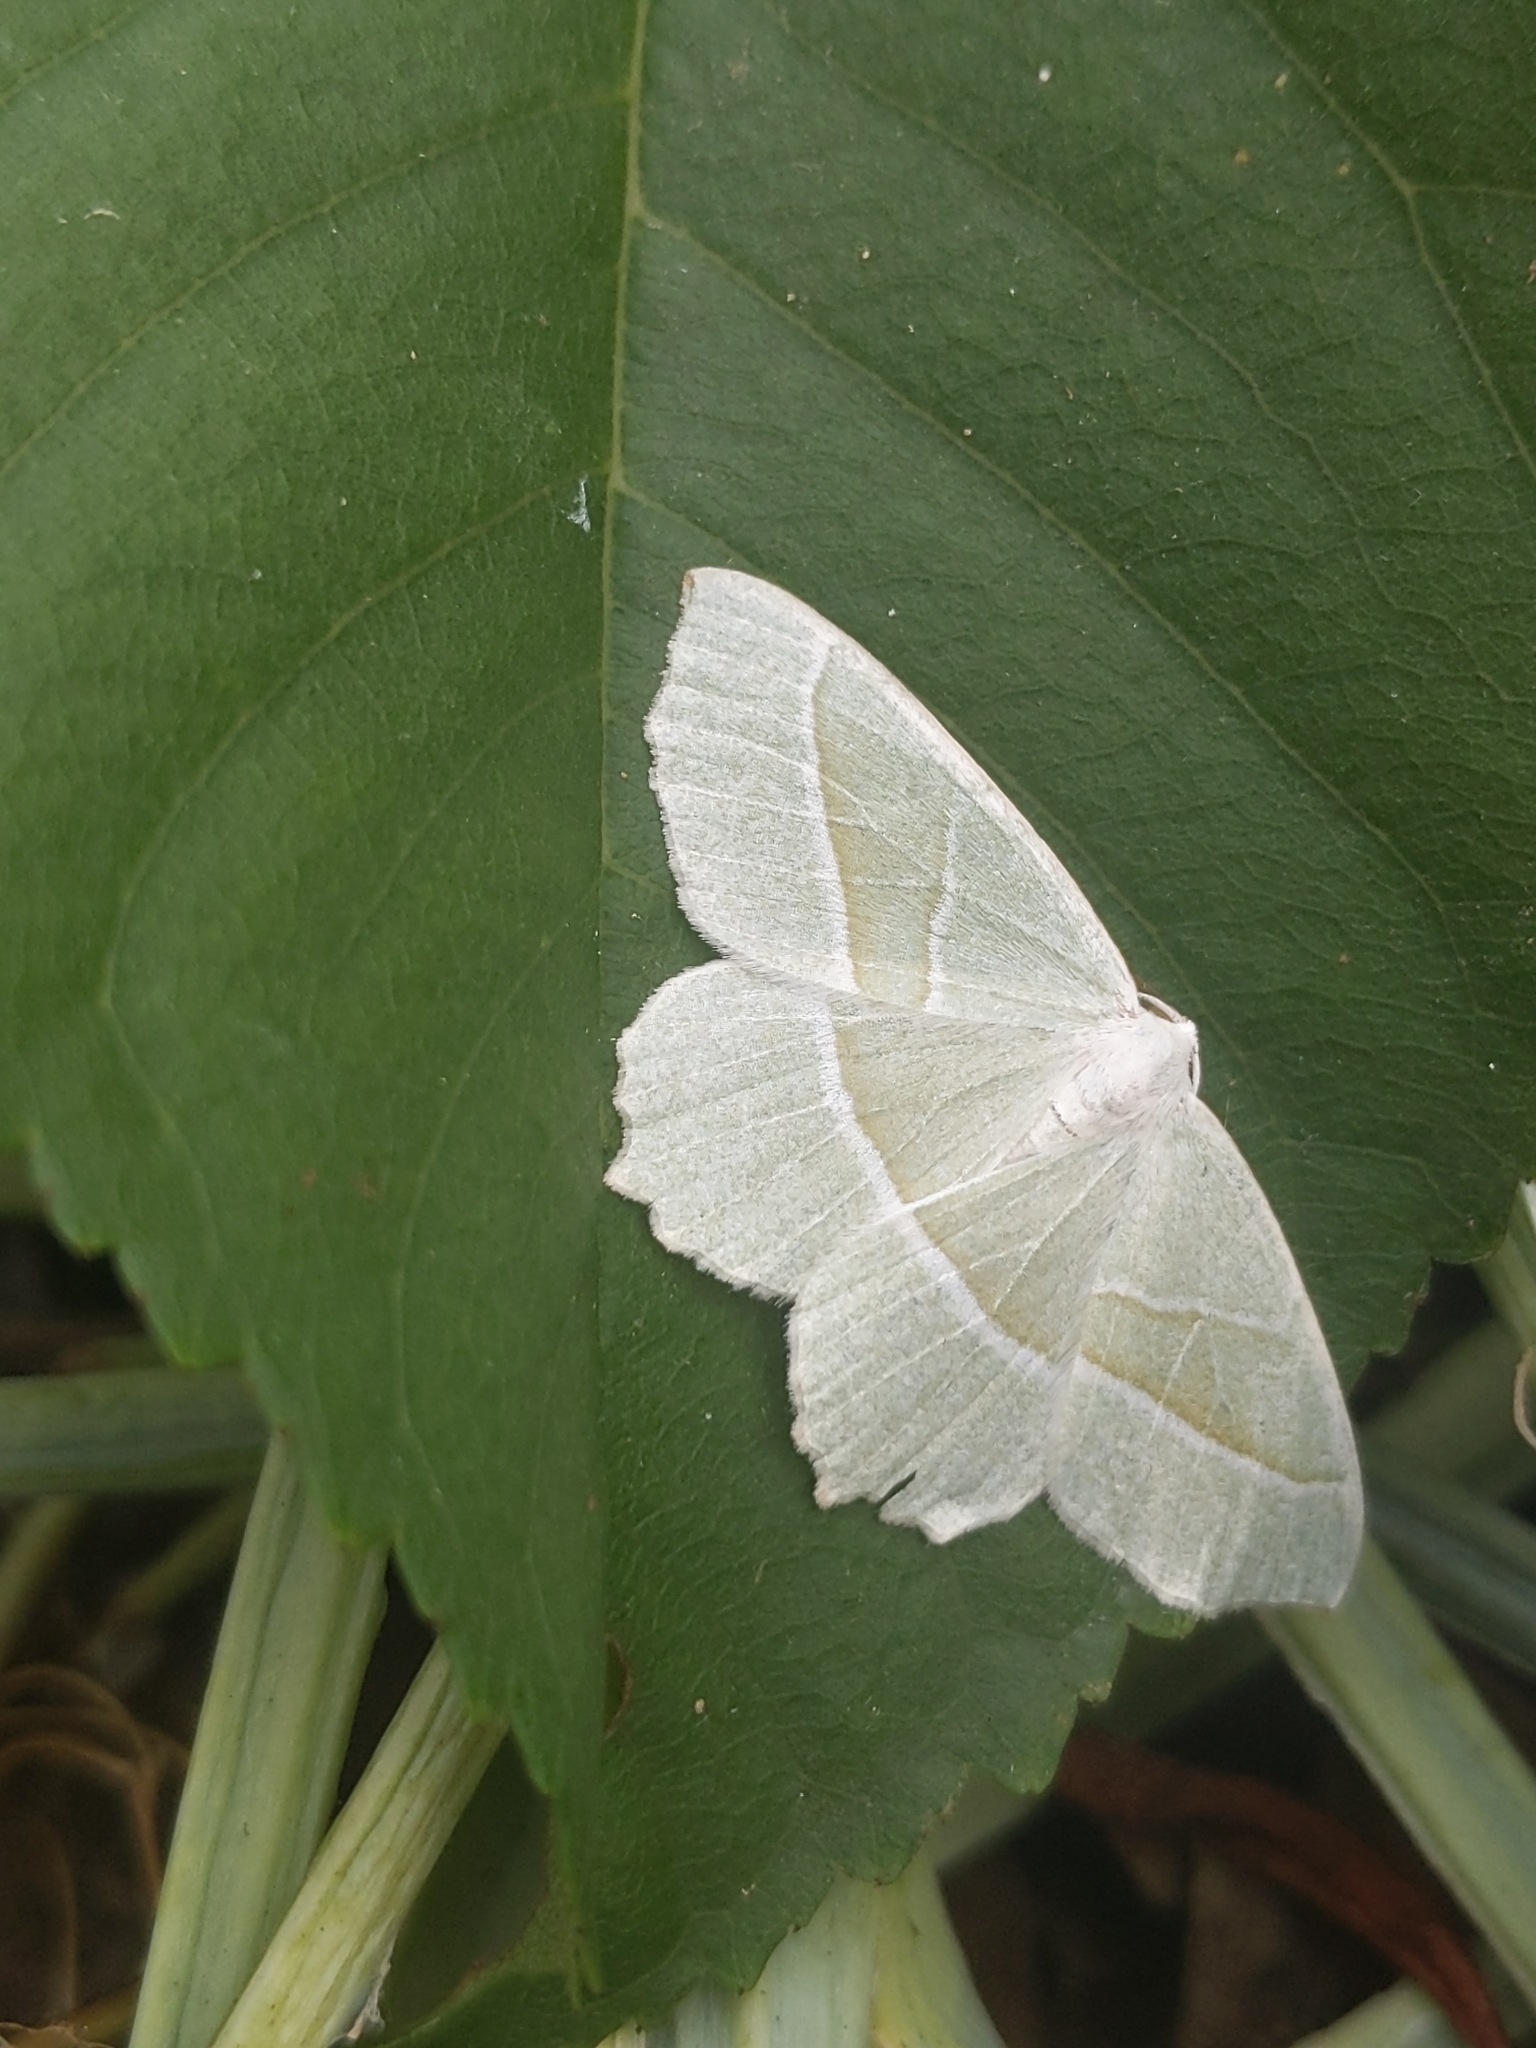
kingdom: Animalia
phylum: Arthropoda
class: Insecta
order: Lepidoptera
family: Geometridae
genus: Campaea
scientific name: Campaea margaritaria
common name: Light emerald
